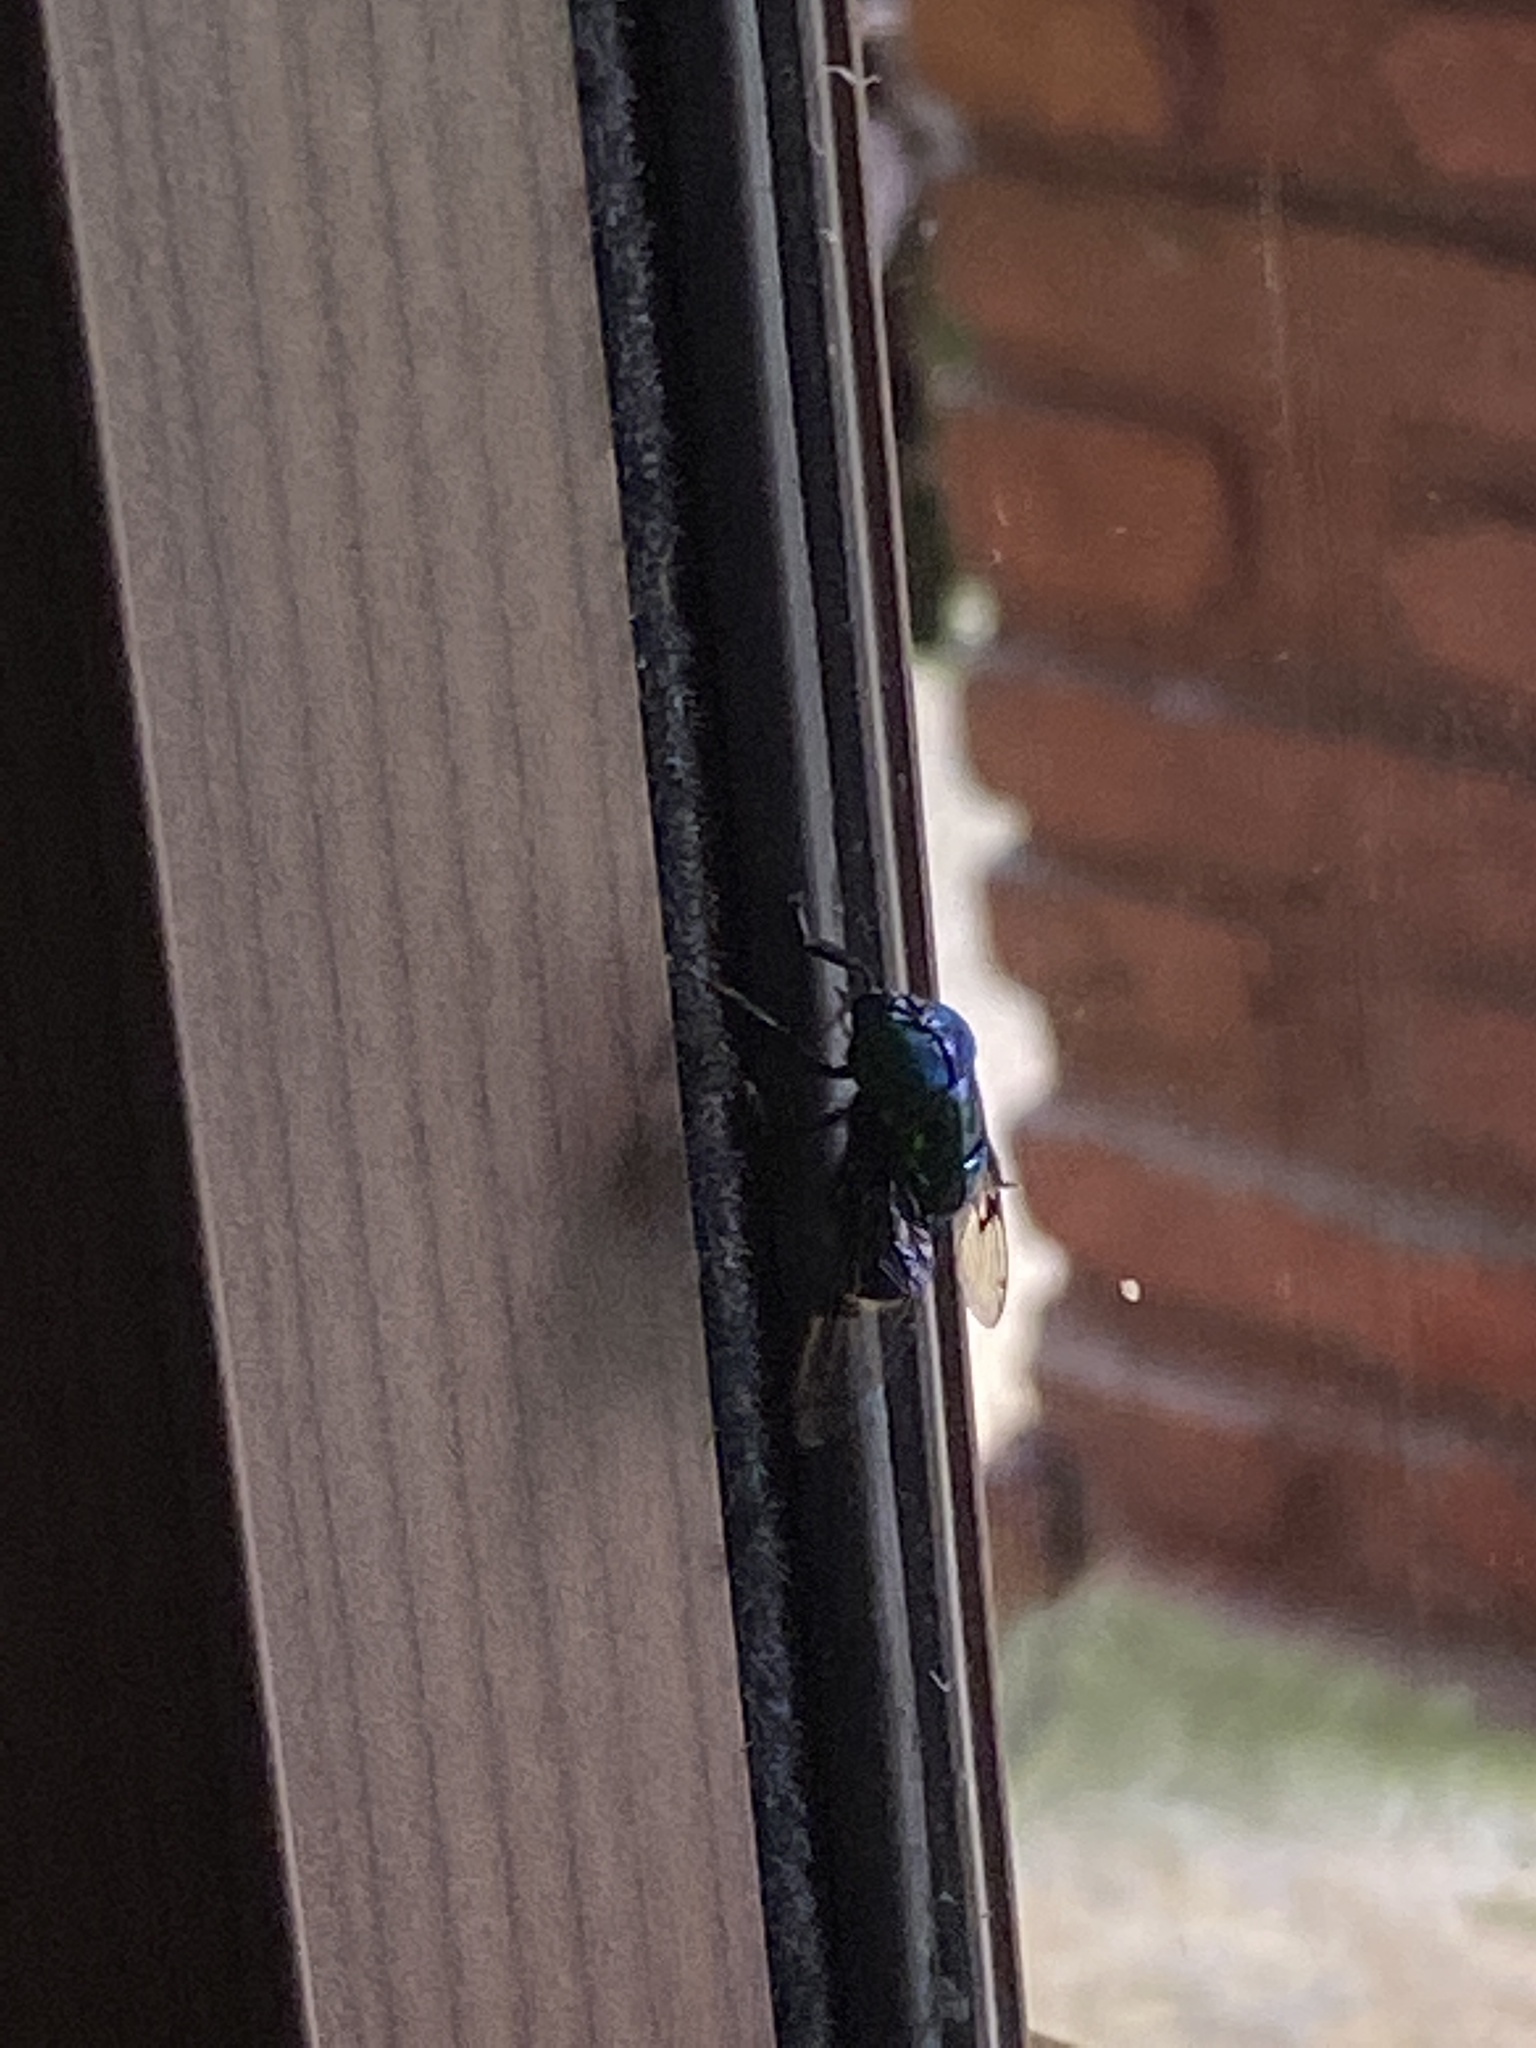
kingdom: Animalia
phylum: Arthropoda
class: Insecta
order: Diptera
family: Syrphidae
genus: Ornidia
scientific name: Ornidia obesa
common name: Syrphid fly
